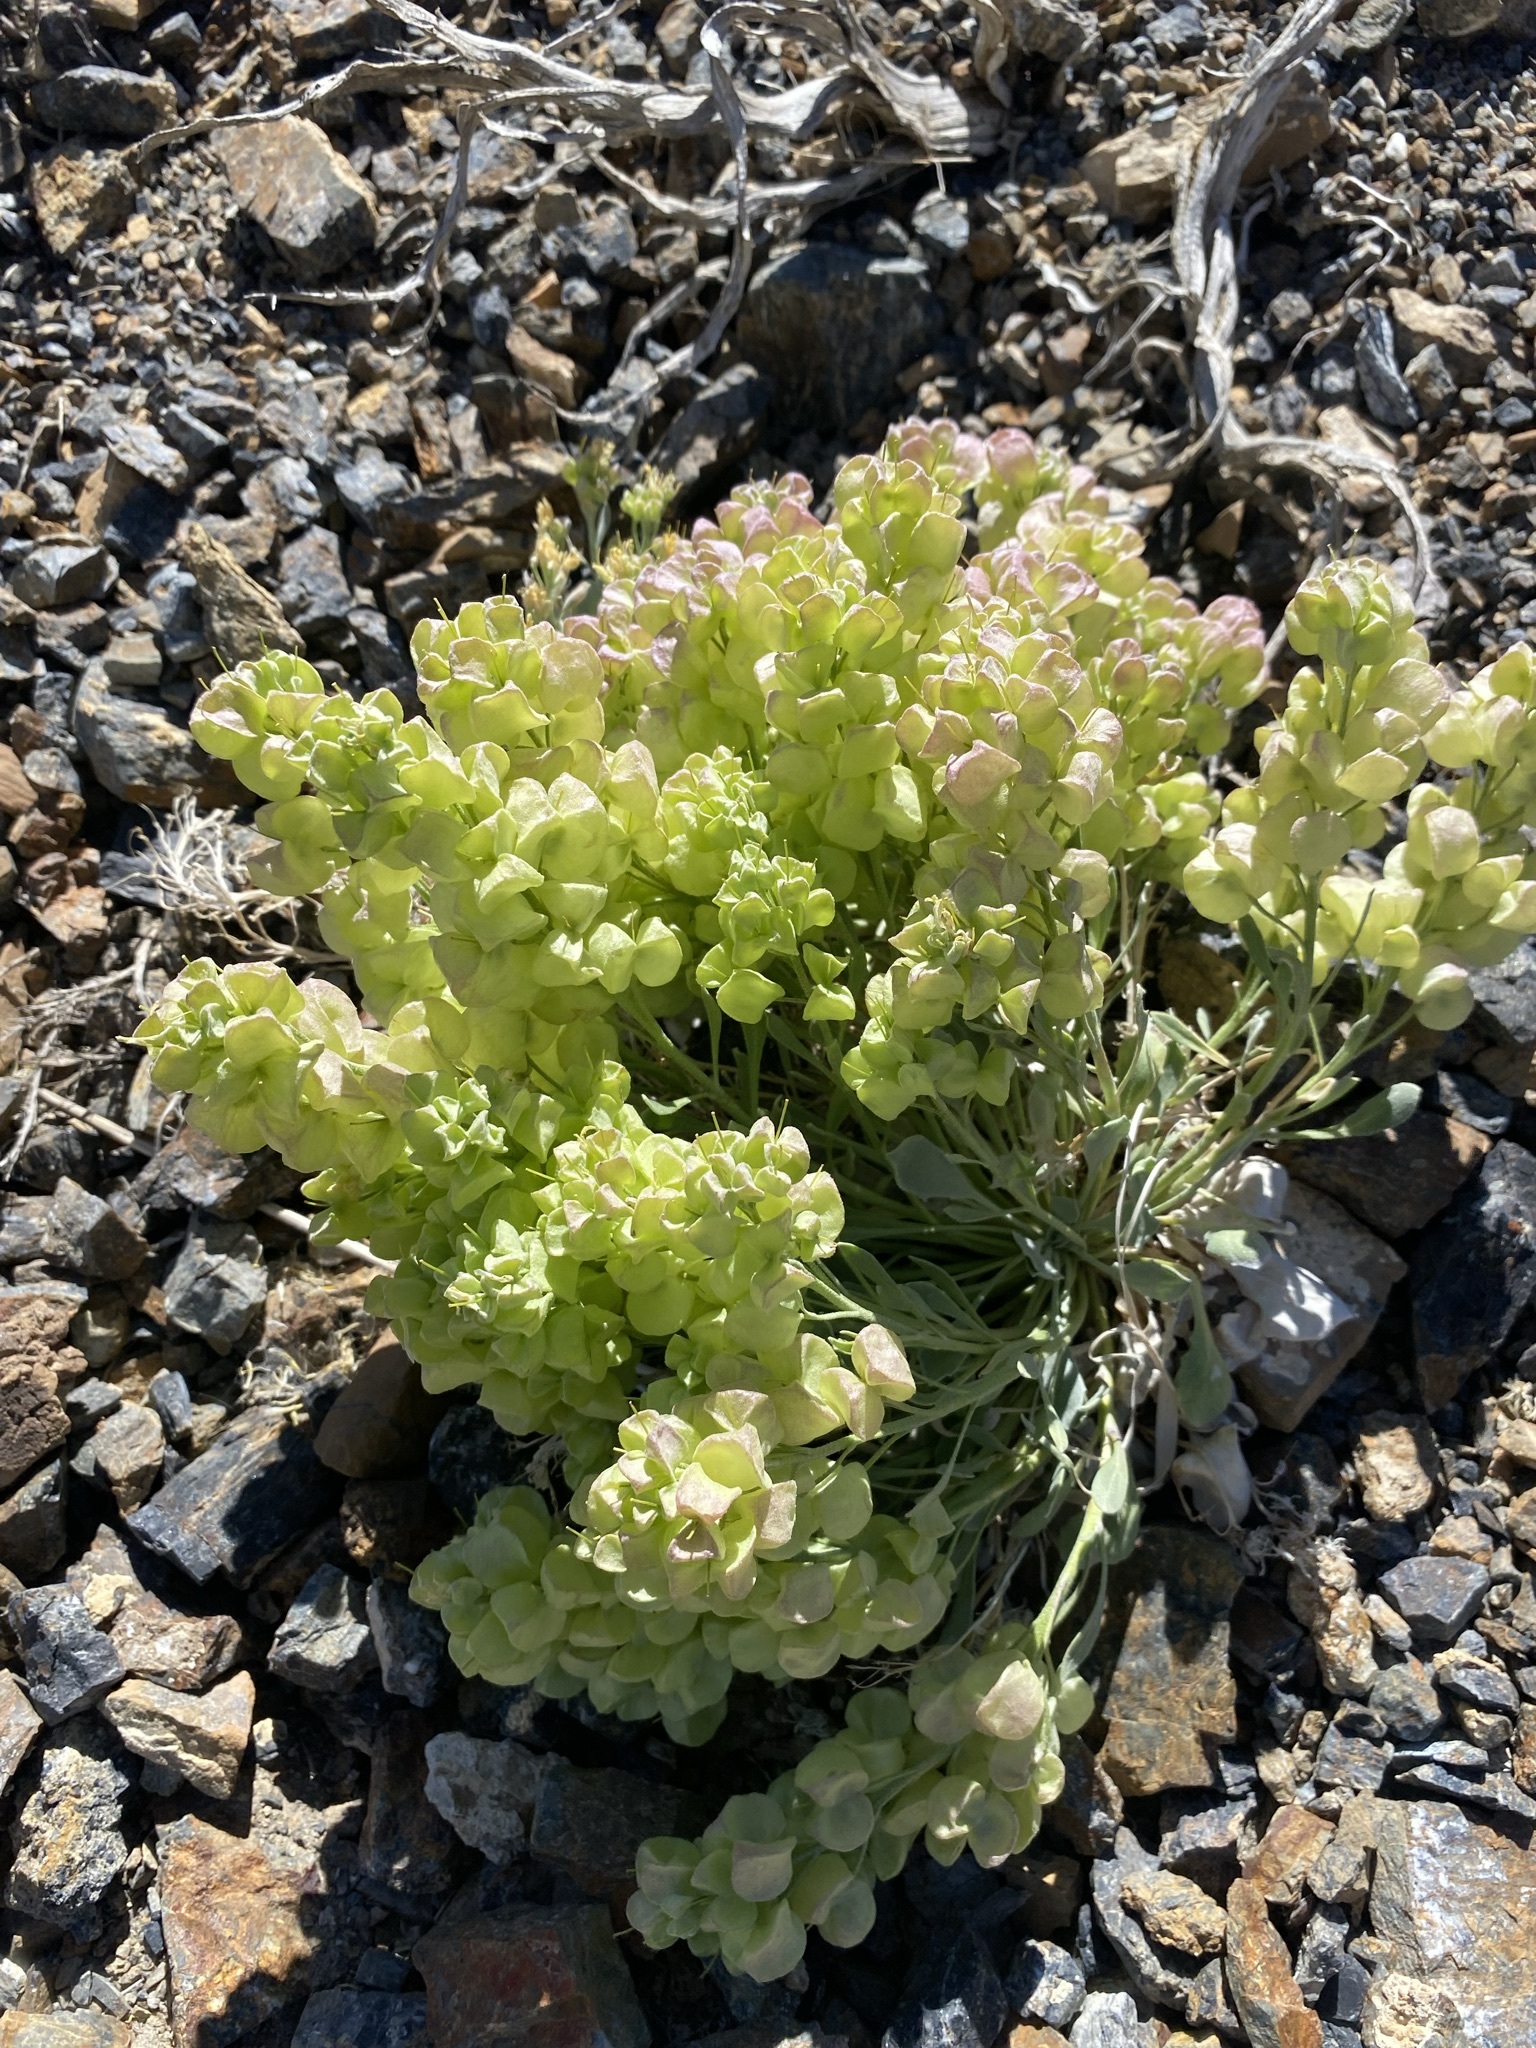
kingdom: Plantae
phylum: Tracheophyta
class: Magnoliopsida
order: Brassicales
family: Brassicaceae
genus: Physaria
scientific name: Physaria chambersii
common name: Chamber's twinpod
